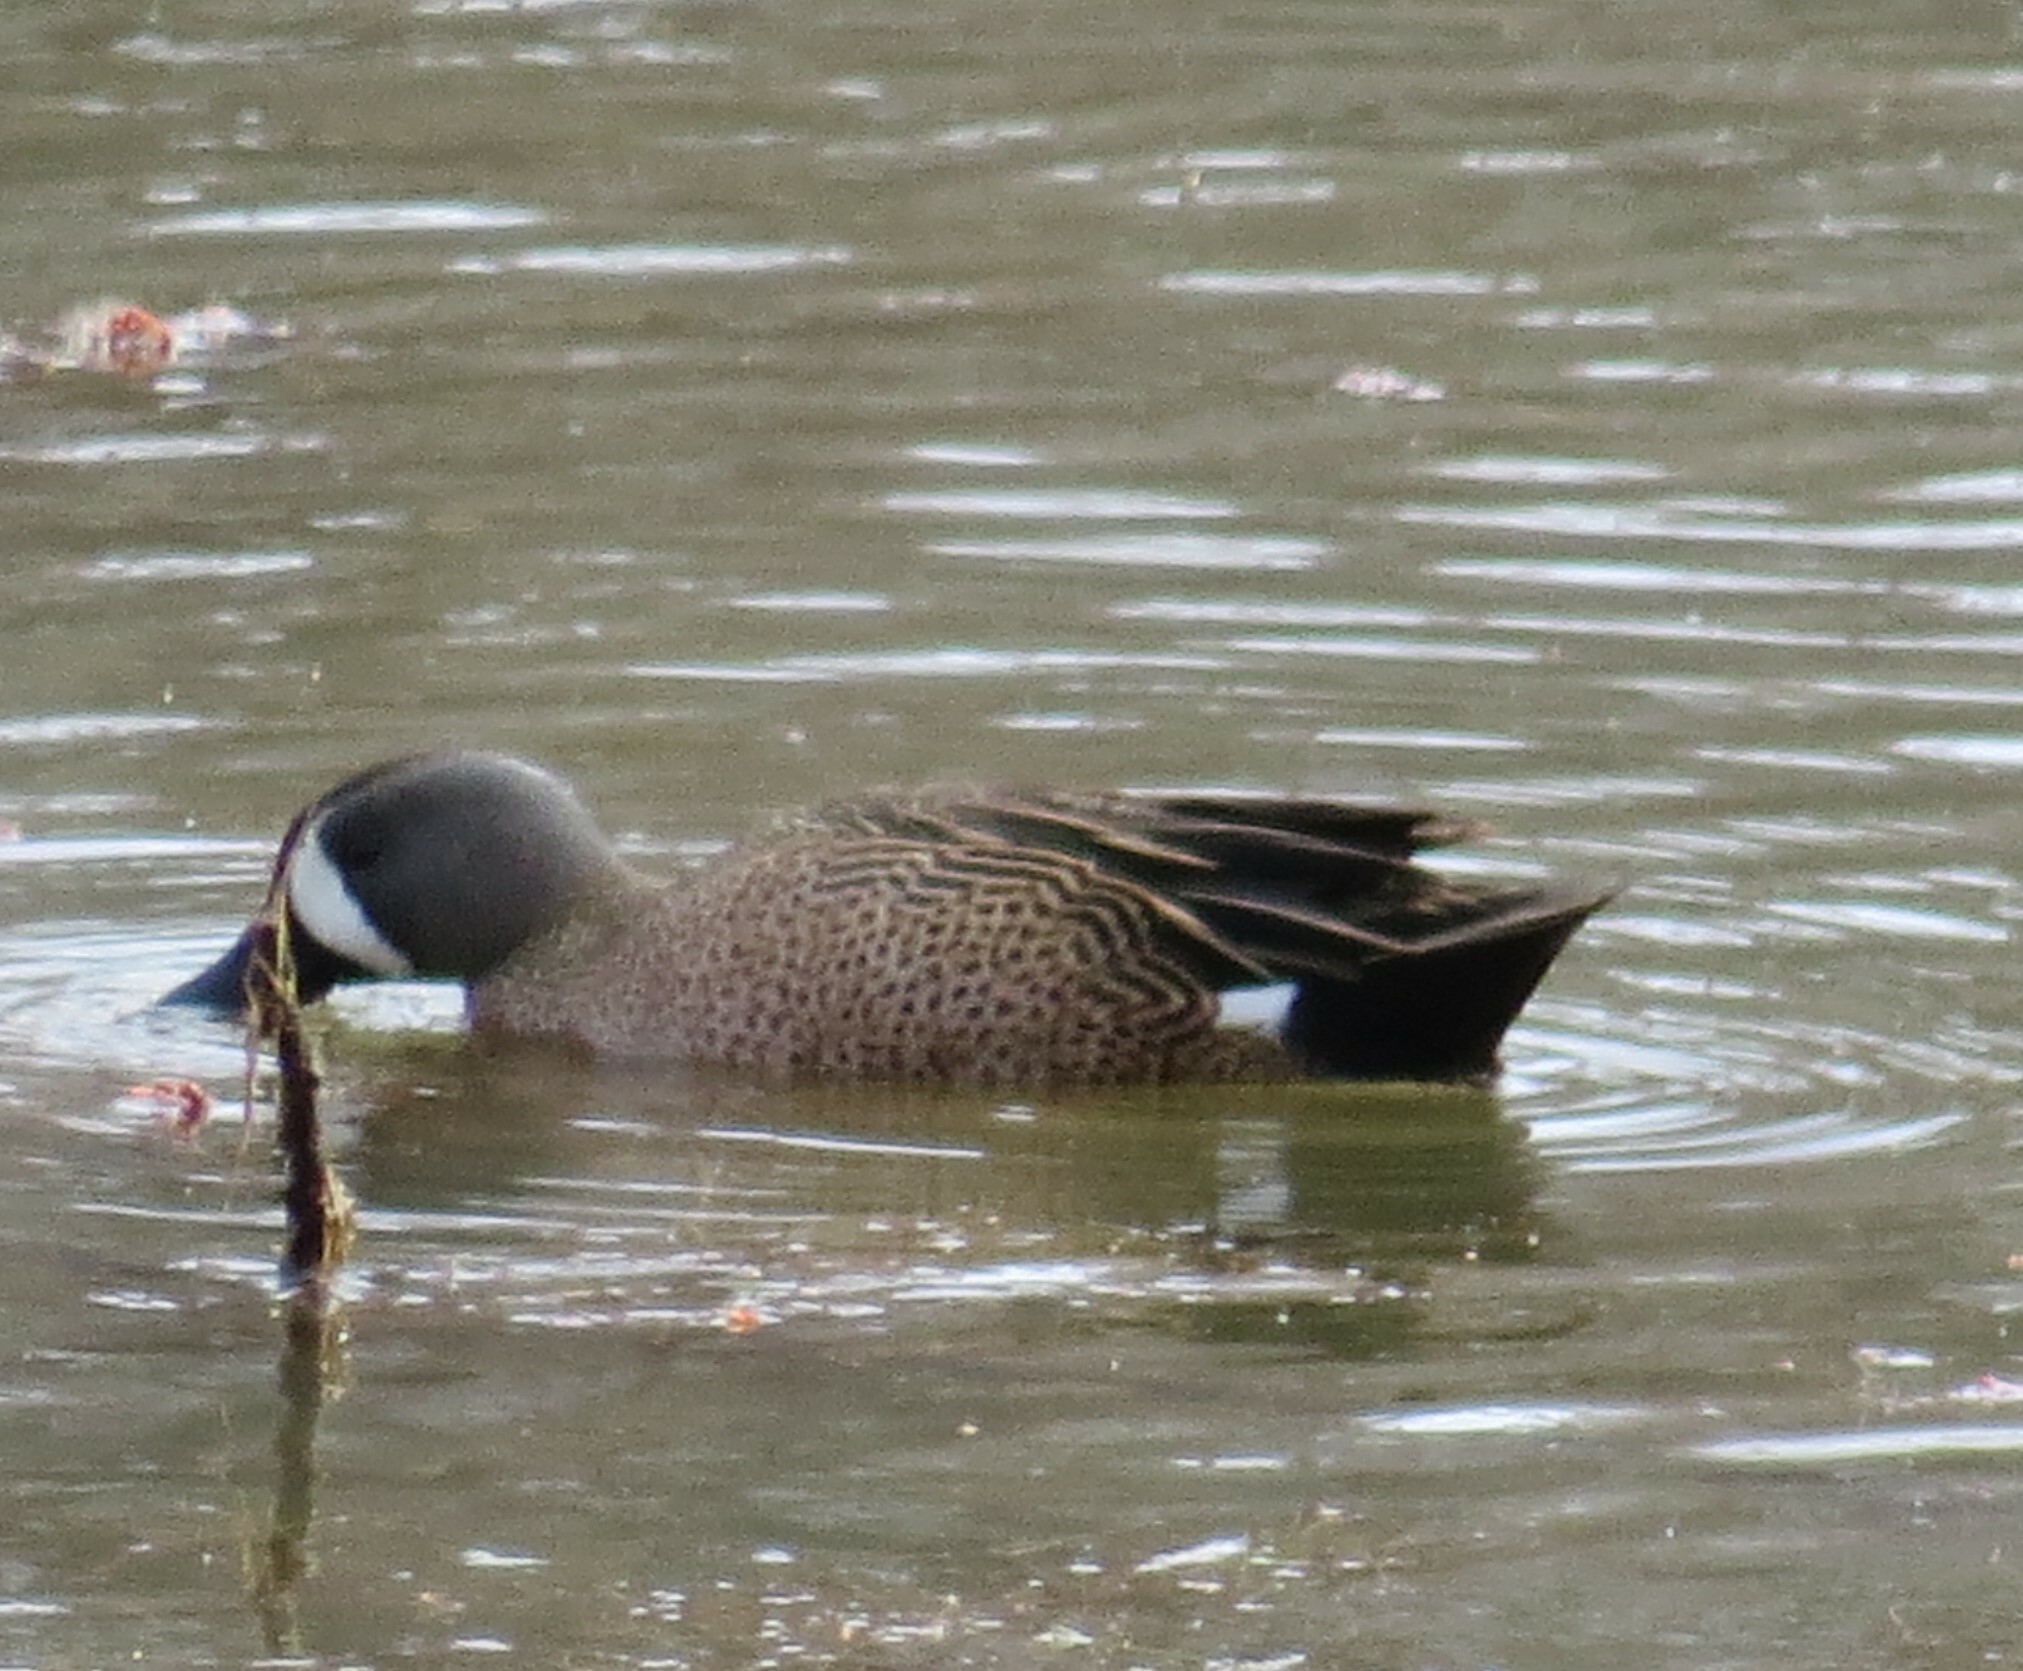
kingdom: Animalia
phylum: Chordata
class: Aves
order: Anseriformes
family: Anatidae
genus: Spatula
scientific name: Spatula discors
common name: Blue-winged teal
